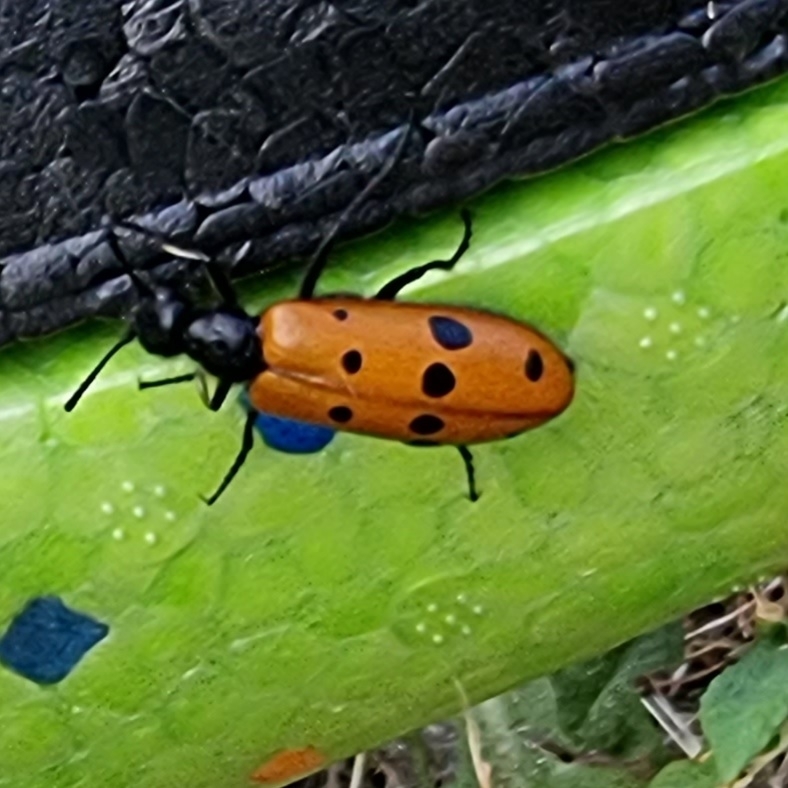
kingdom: Animalia
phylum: Arthropoda
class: Insecta
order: Coleoptera
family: Meloidae
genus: Mylabris
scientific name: Mylabris fabricii
